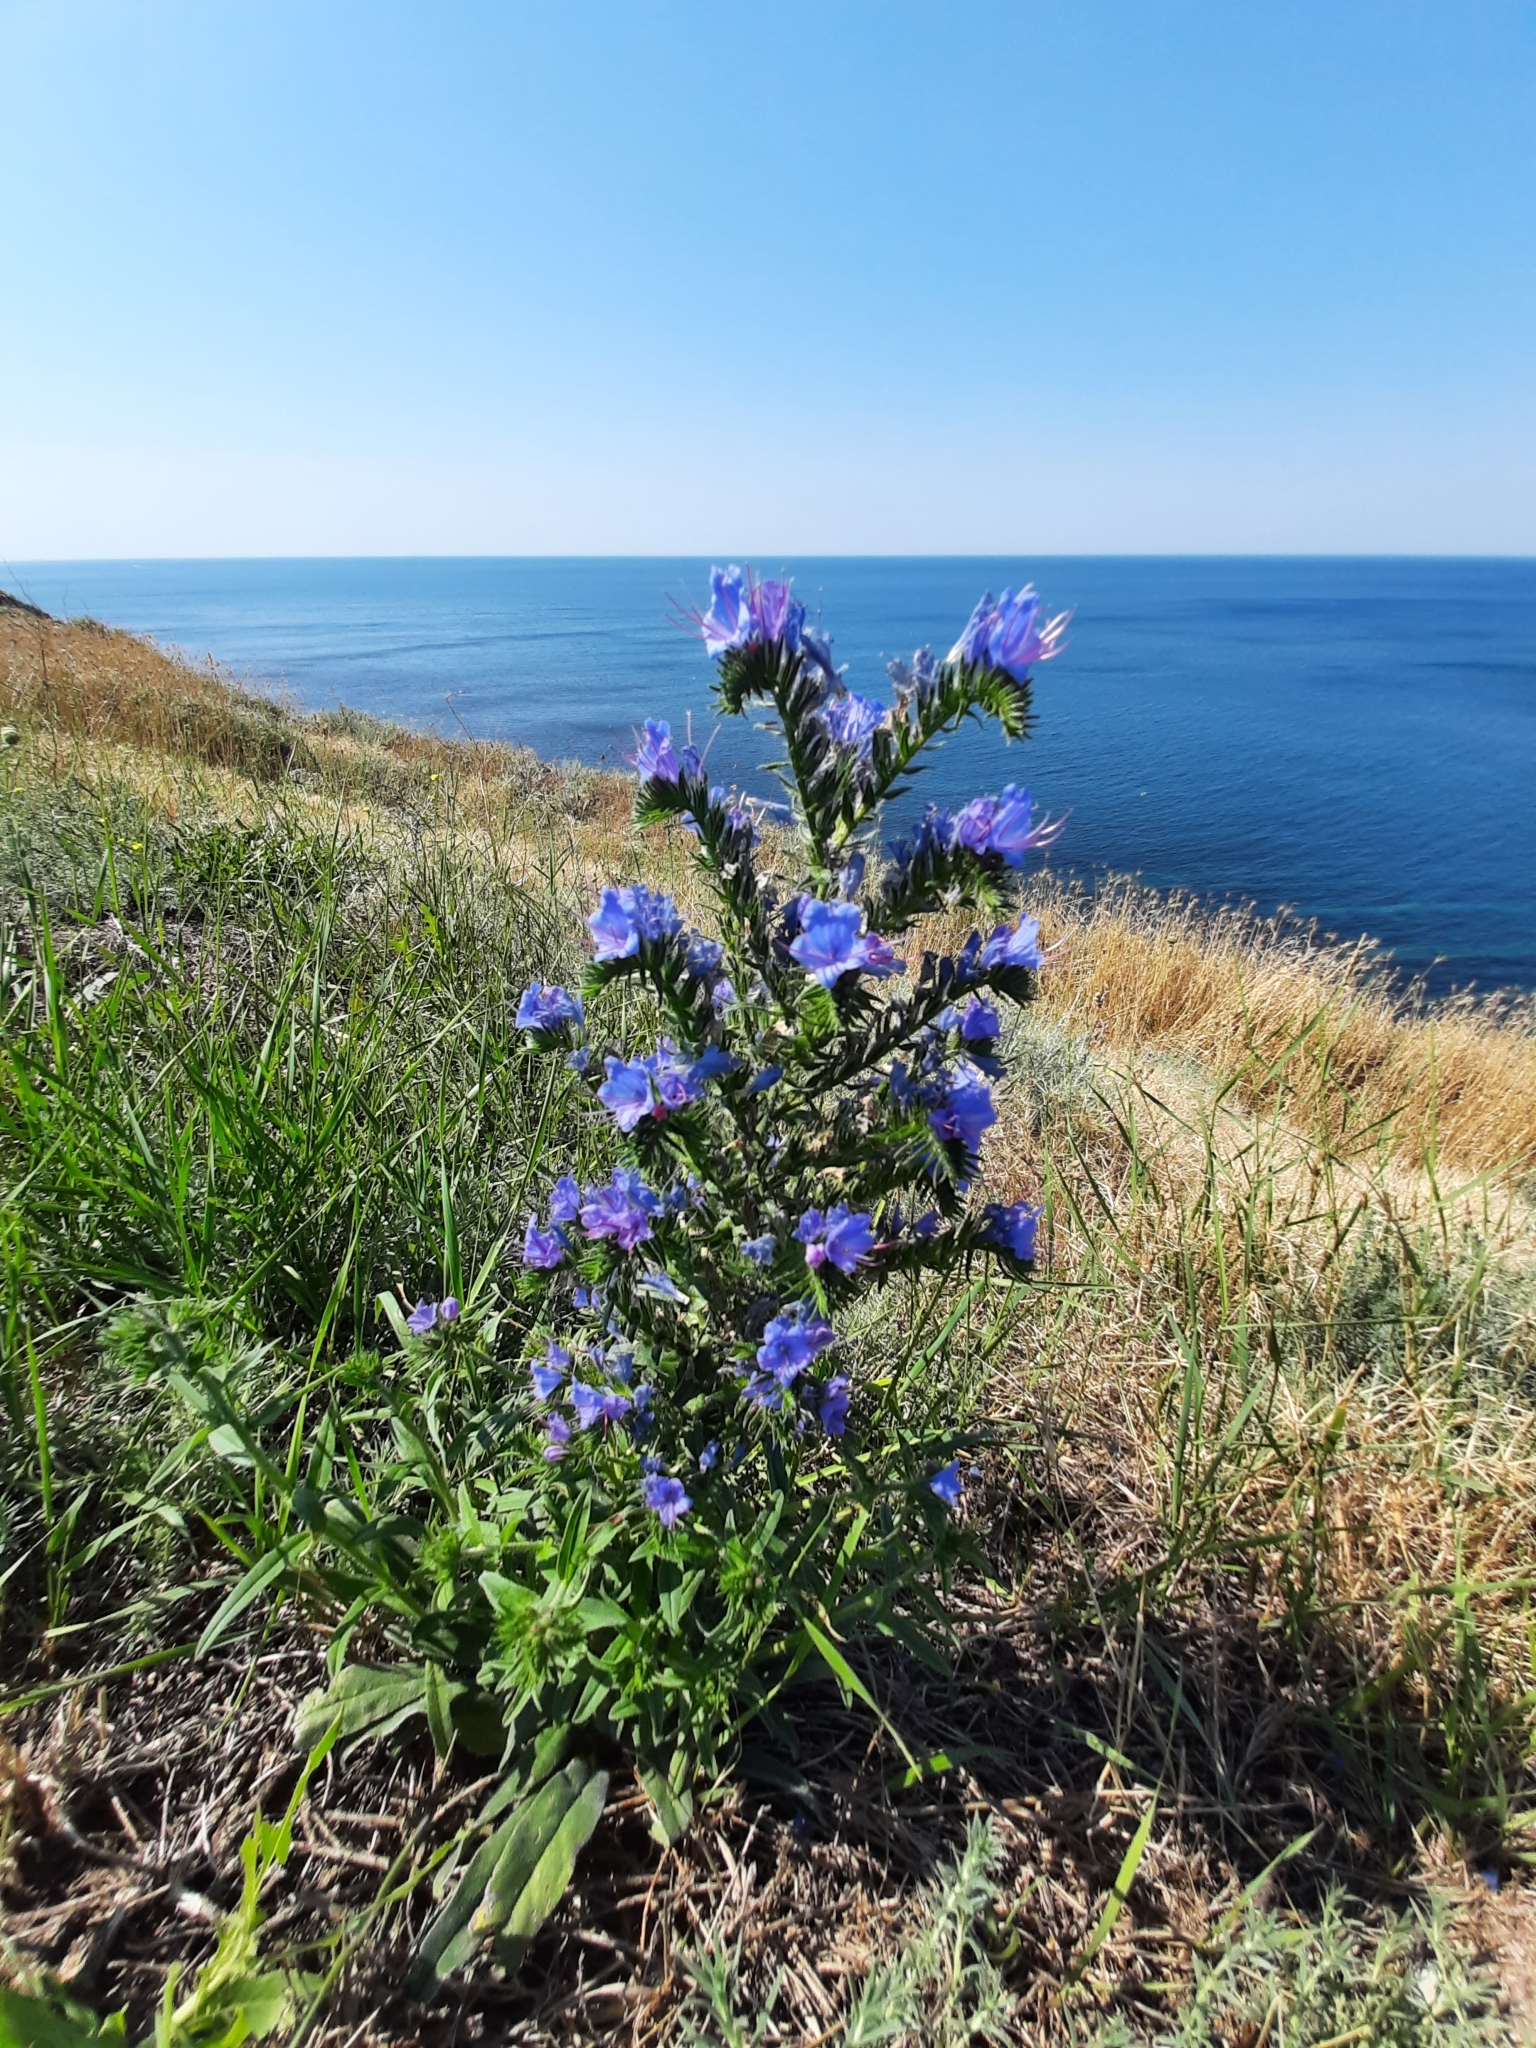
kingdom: Plantae
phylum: Tracheophyta
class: Magnoliopsida
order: Boraginales
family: Boraginaceae
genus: Echium
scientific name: Echium vulgare
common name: Common viper's bugloss
